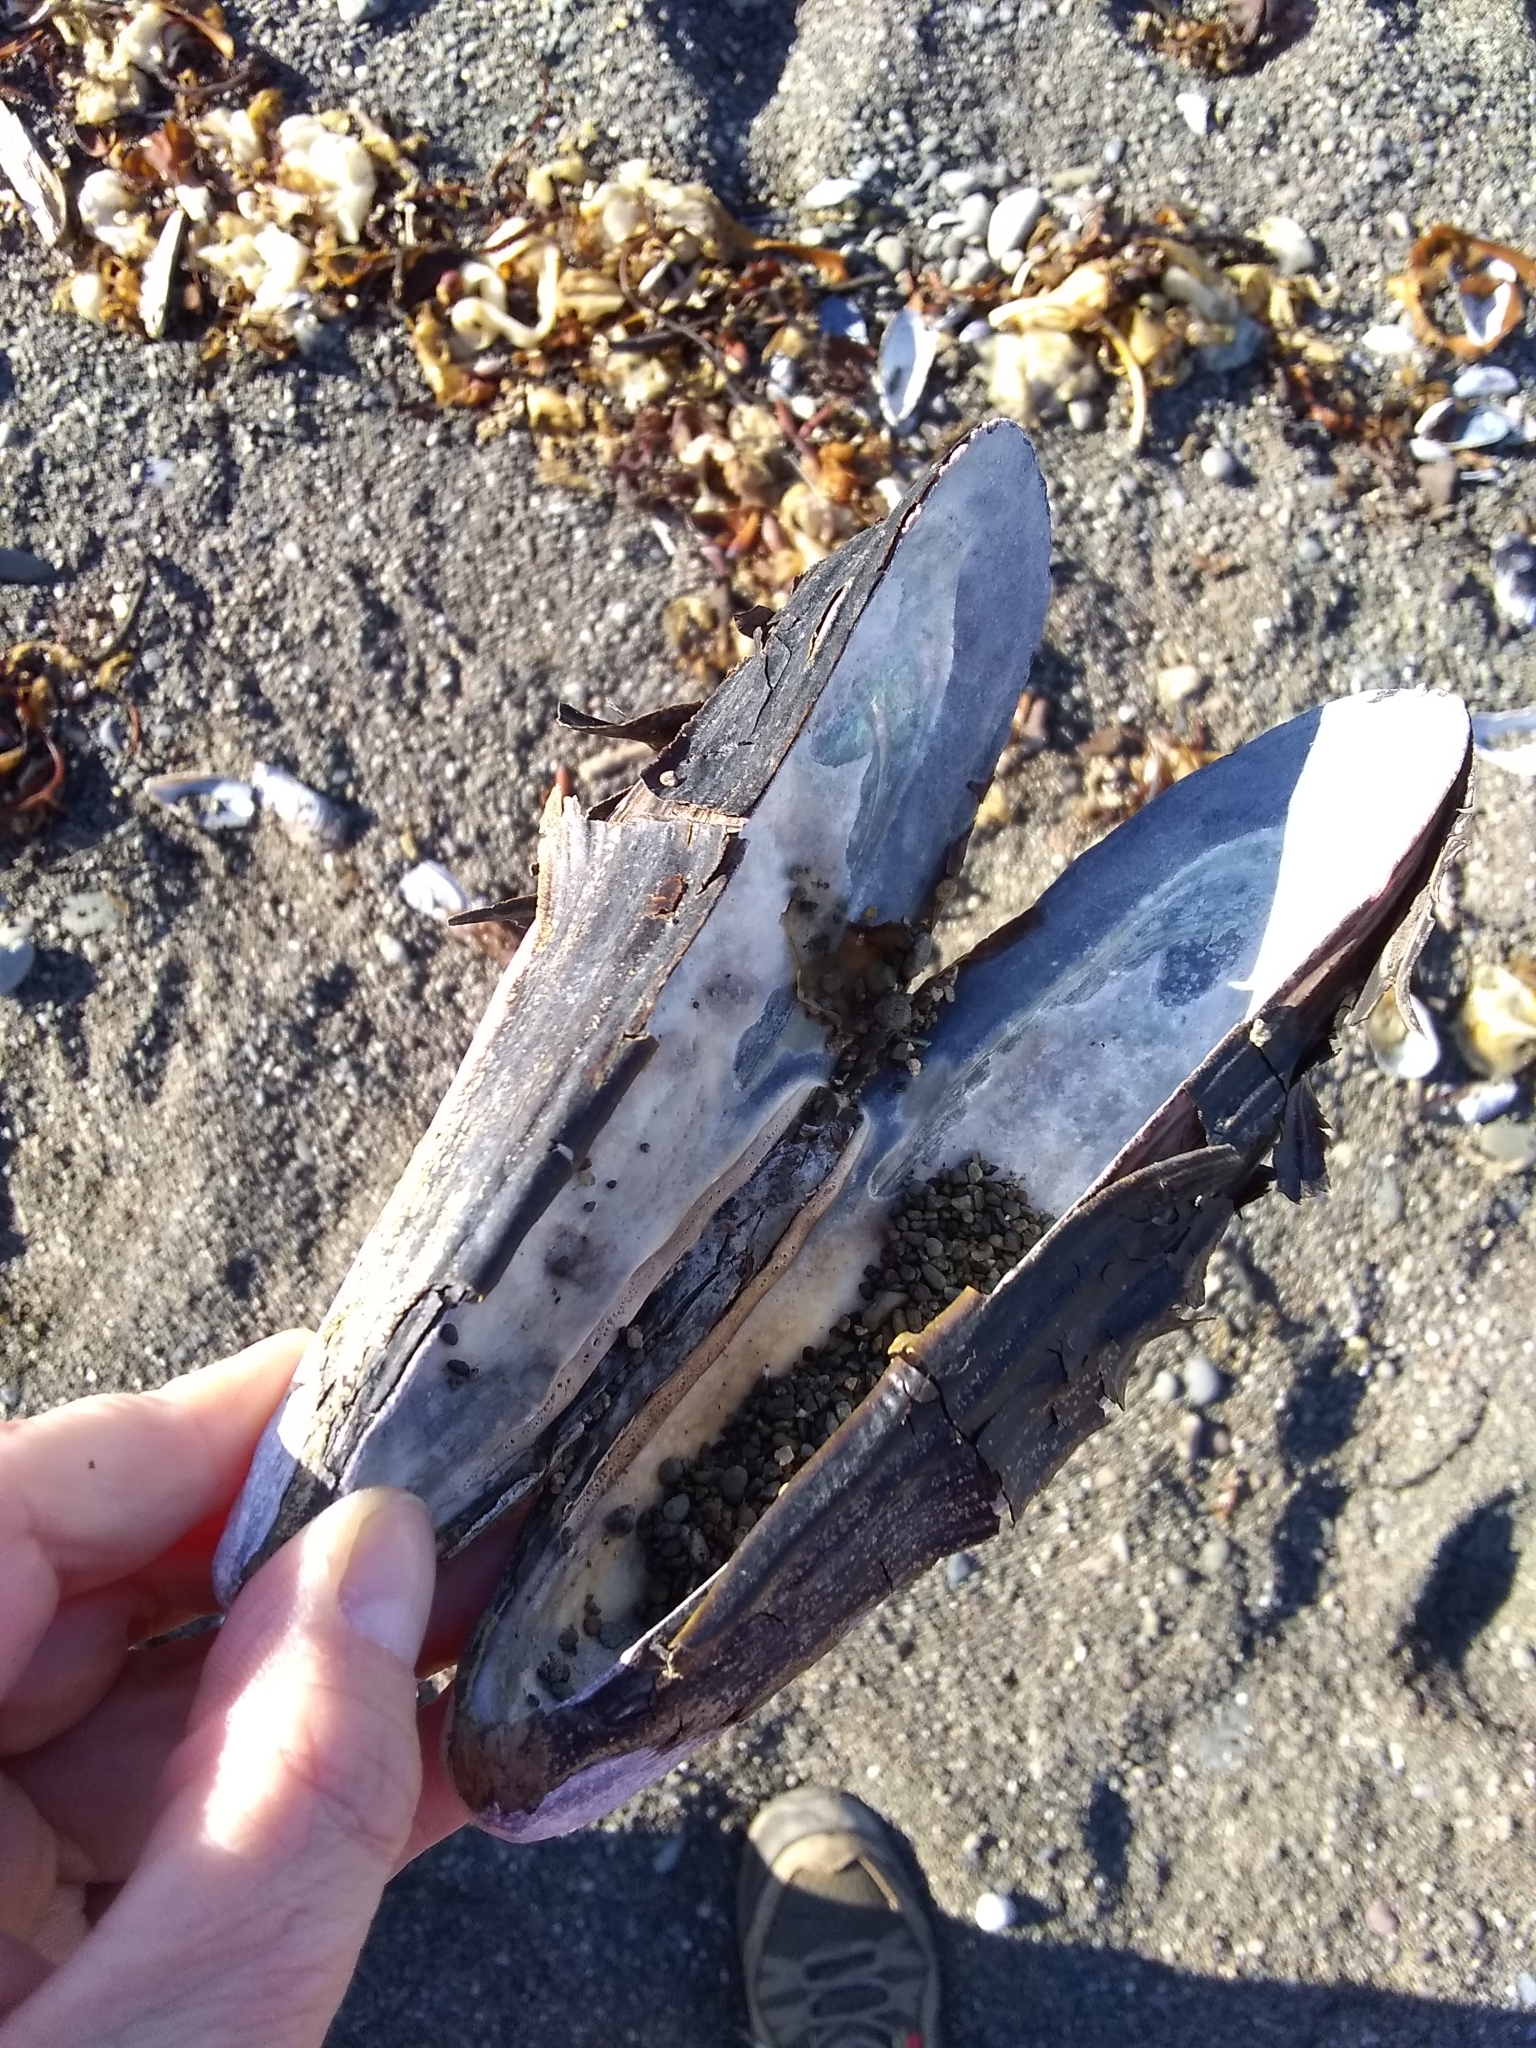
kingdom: Animalia
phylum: Mollusca
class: Bivalvia
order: Mytilida
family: Mytilidae
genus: Mytilus
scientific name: Mytilus californianus
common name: California mussel
